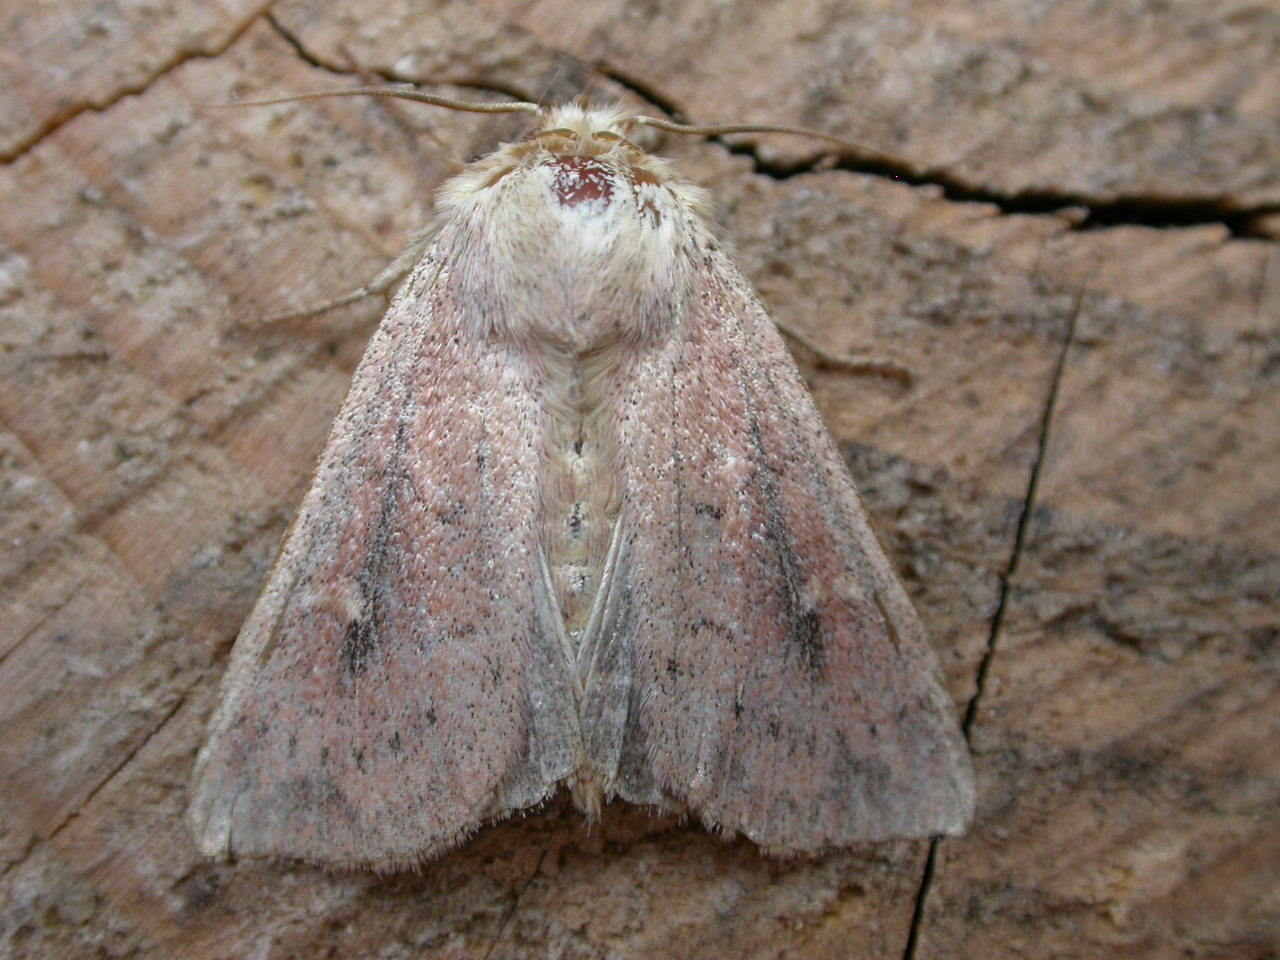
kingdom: Animalia
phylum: Arthropoda
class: Insecta
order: Lepidoptera
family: Noctuidae
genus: Mythimna
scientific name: Mythimna ferrago
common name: Clay
